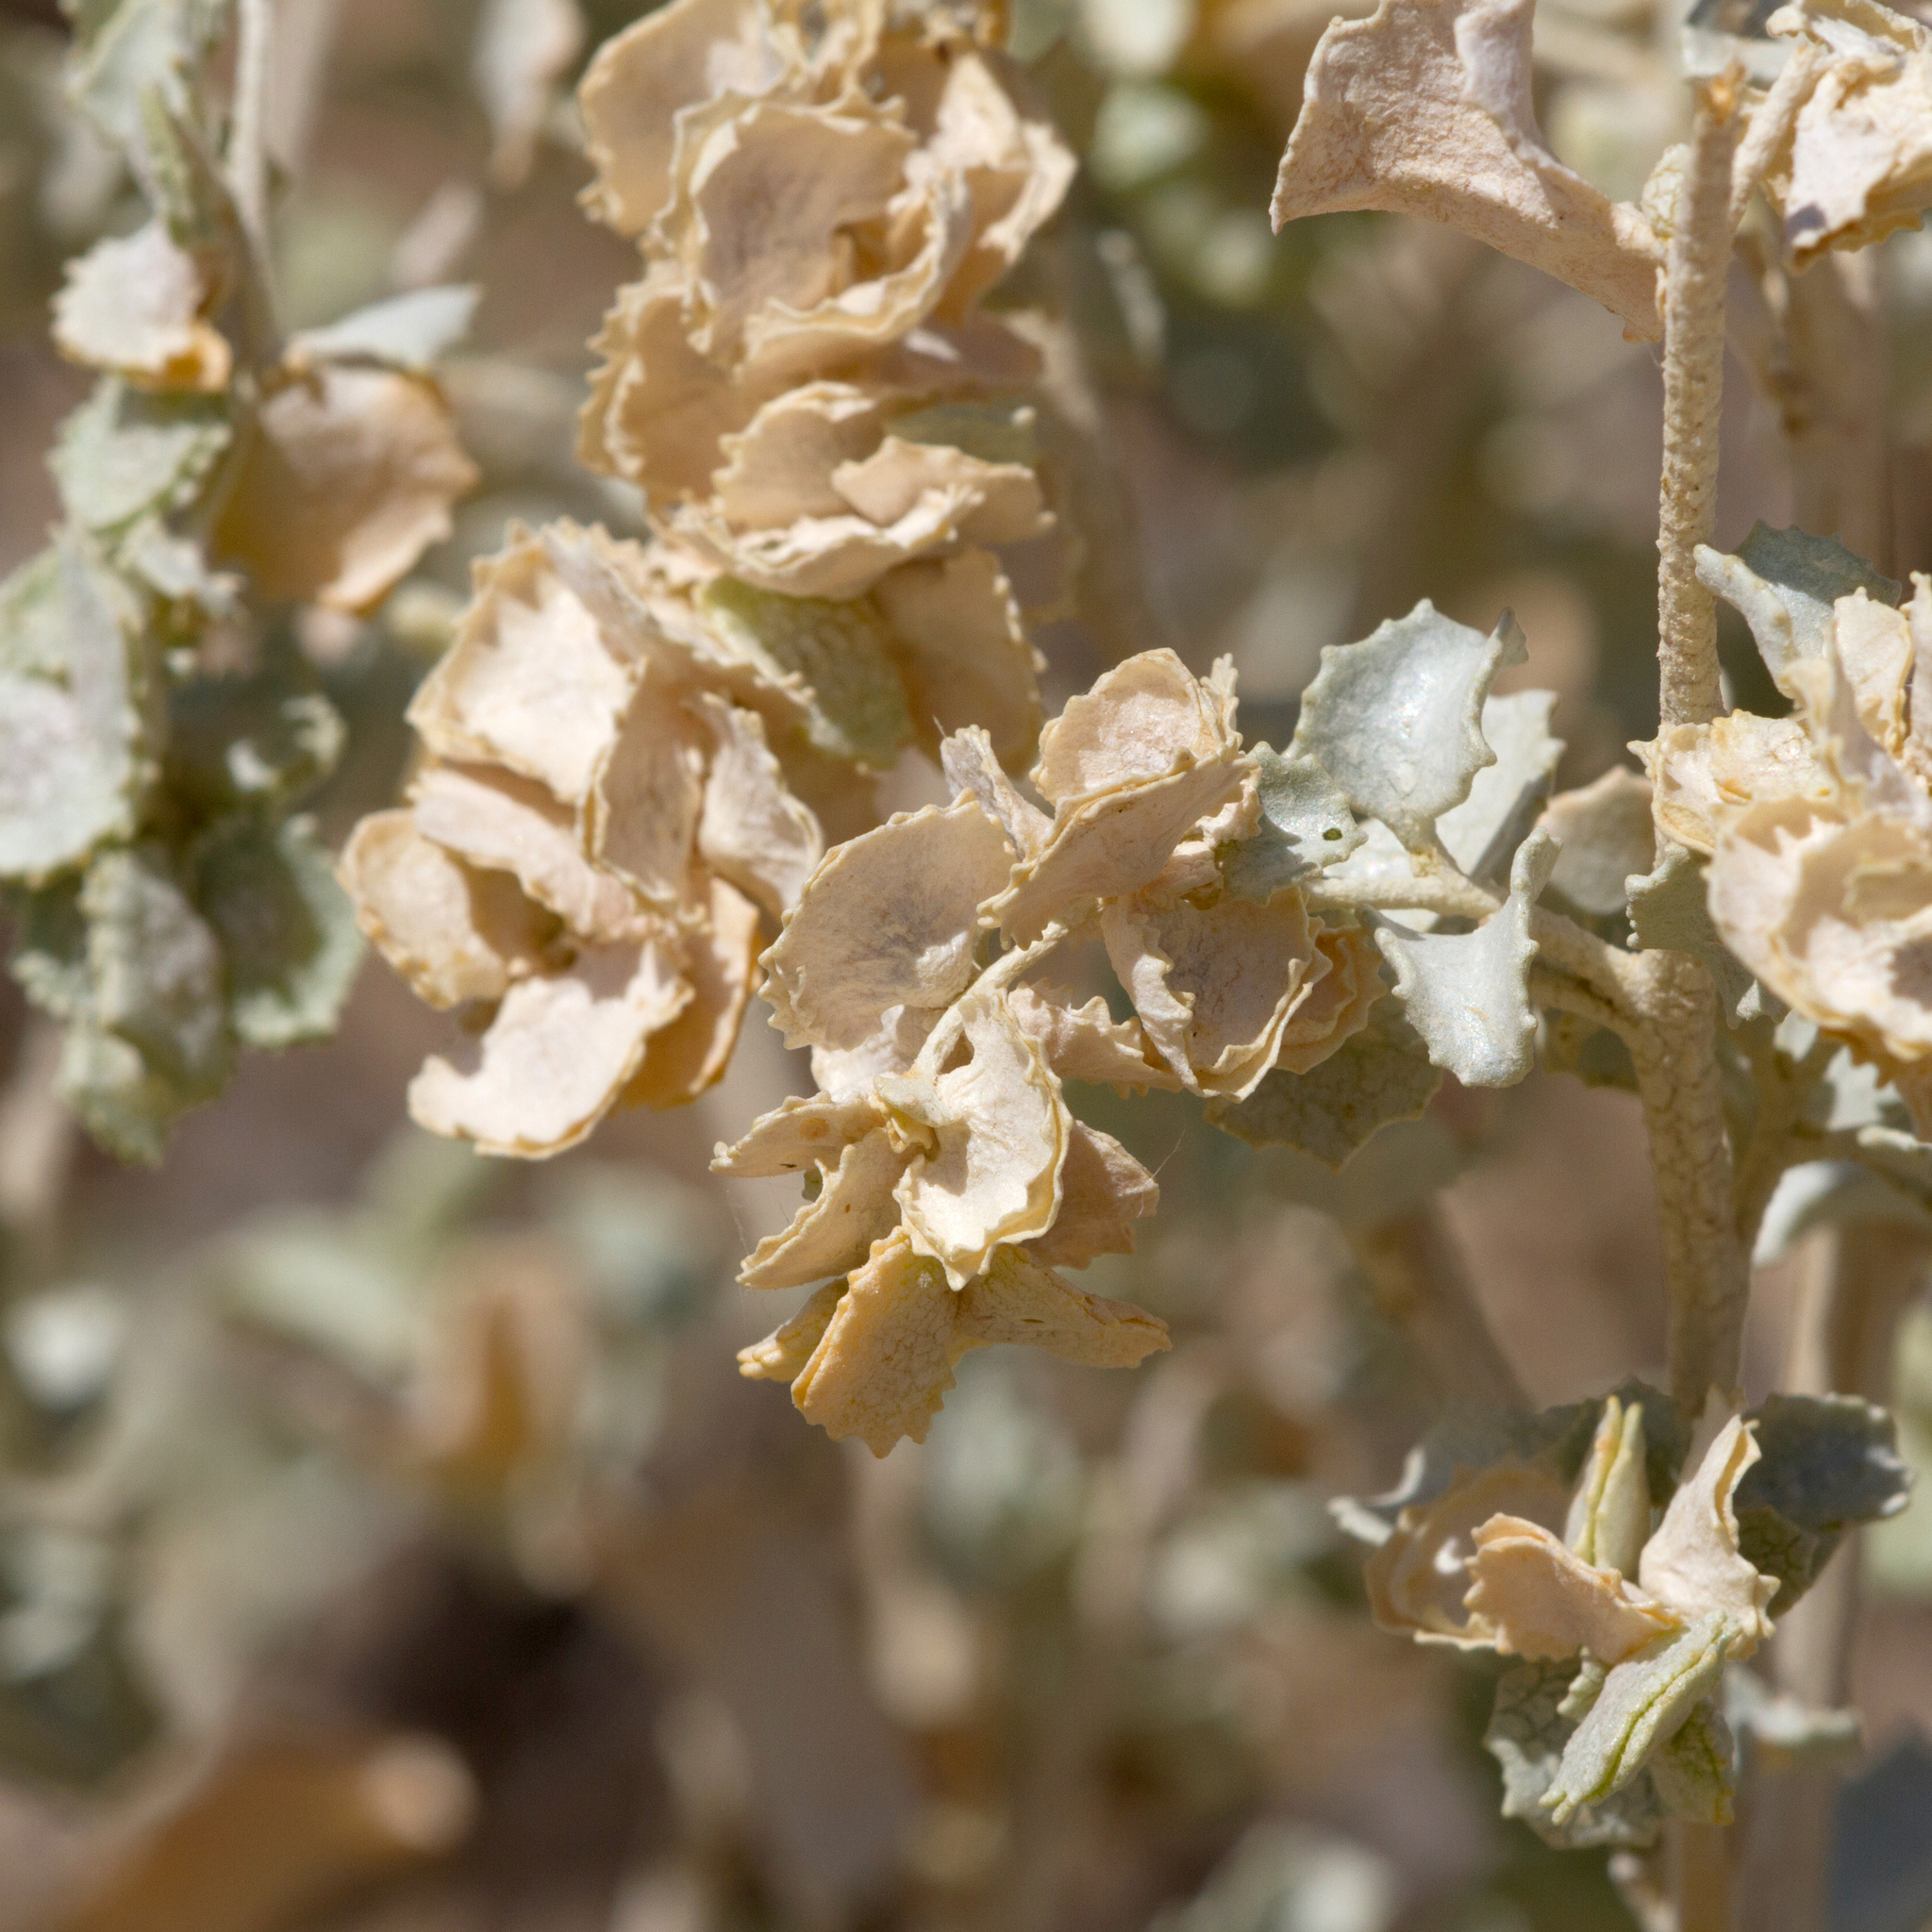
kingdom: Plantae
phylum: Tracheophyta
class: Magnoliopsida
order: Caryophyllales
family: Amaranthaceae
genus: Atriplex
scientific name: Atriplex nummularia
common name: Bluegreen saltbush
